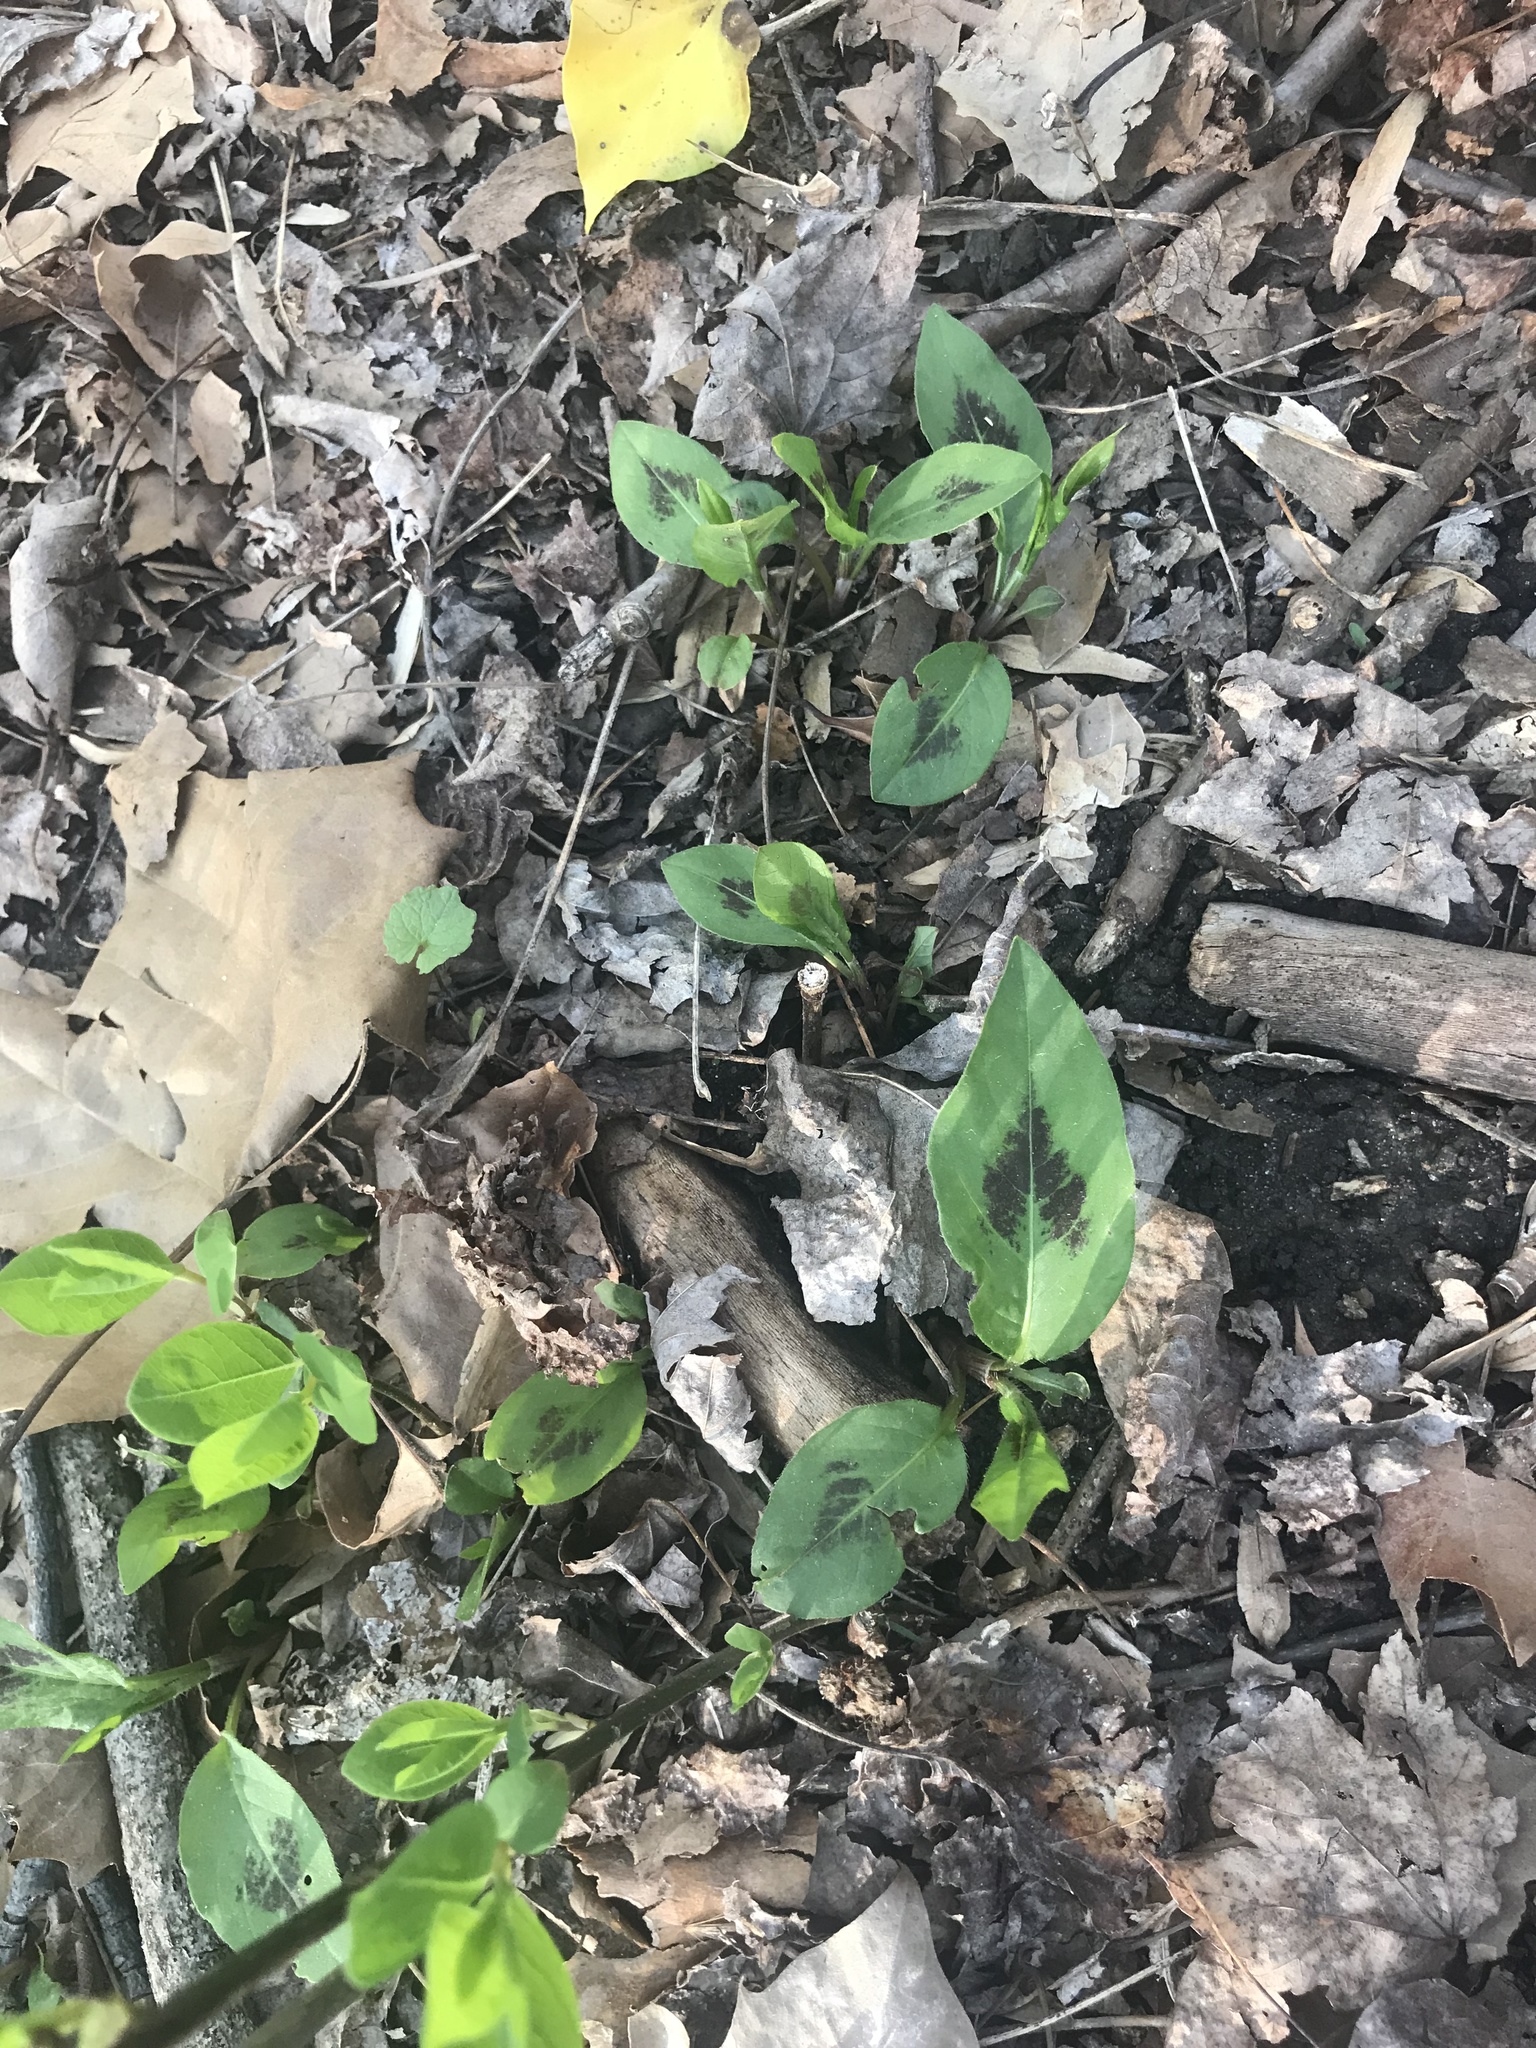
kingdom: Plantae
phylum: Tracheophyta
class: Magnoliopsida
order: Caryophyllales
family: Polygonaceae
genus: Persicaria
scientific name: Persicaria virginiana
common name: Jumpseed
